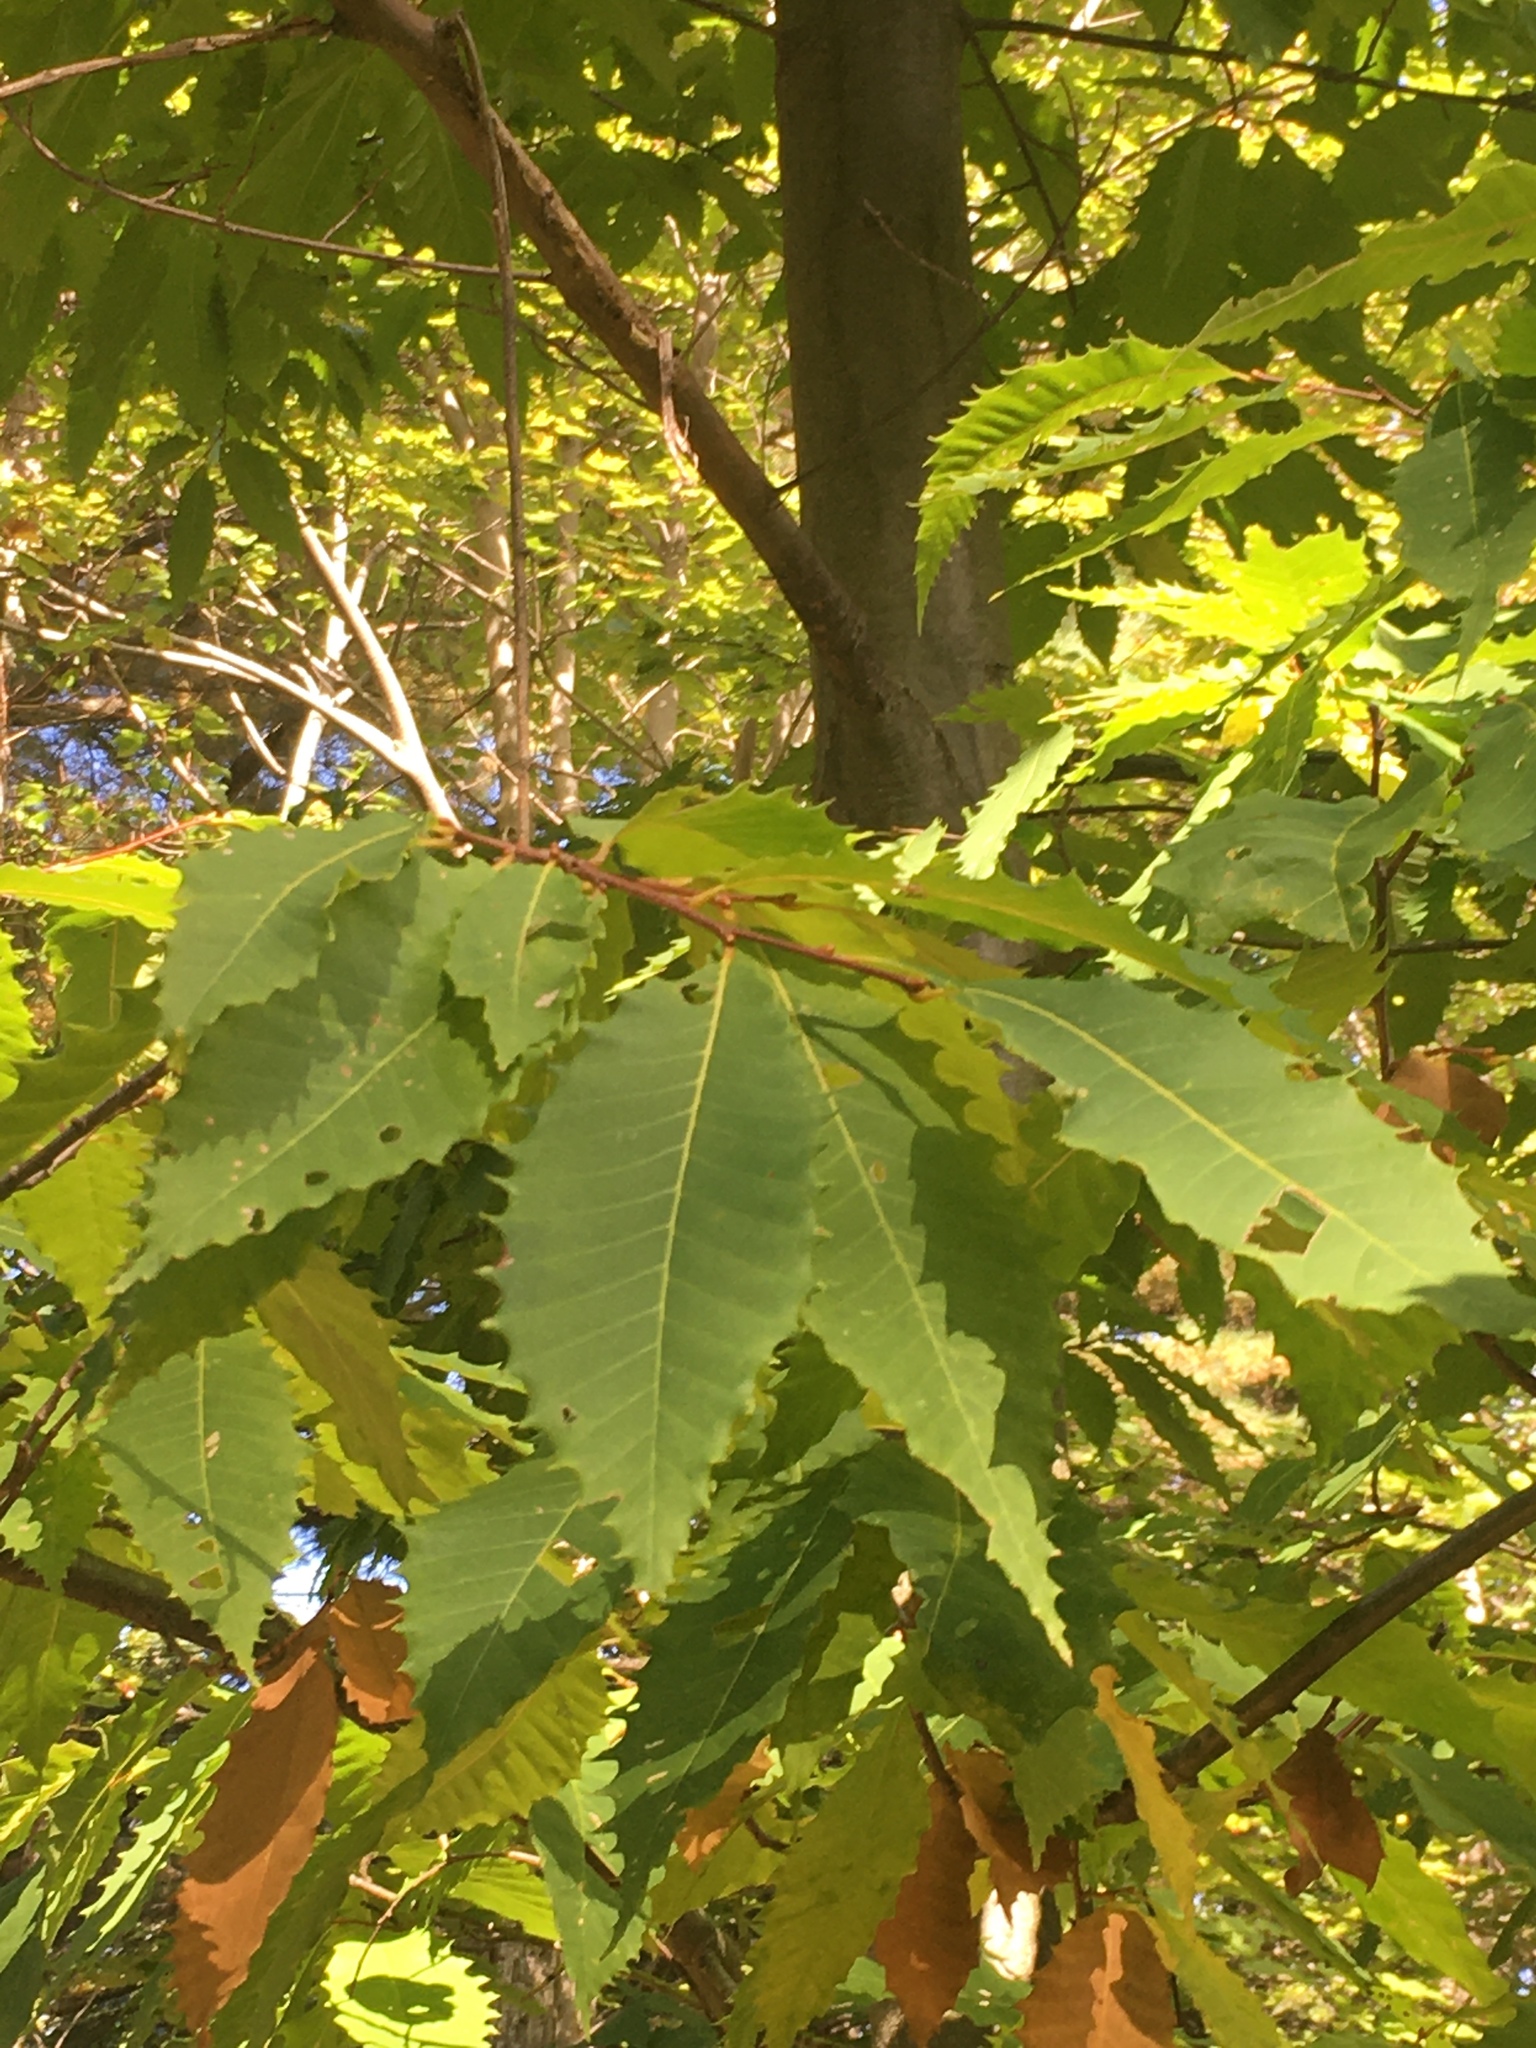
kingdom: Plantae
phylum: Tracheophyta
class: Magnoliopsida
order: Fagales
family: Fagaceae
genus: Castanea
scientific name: Castanea dentata
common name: American chestnut
